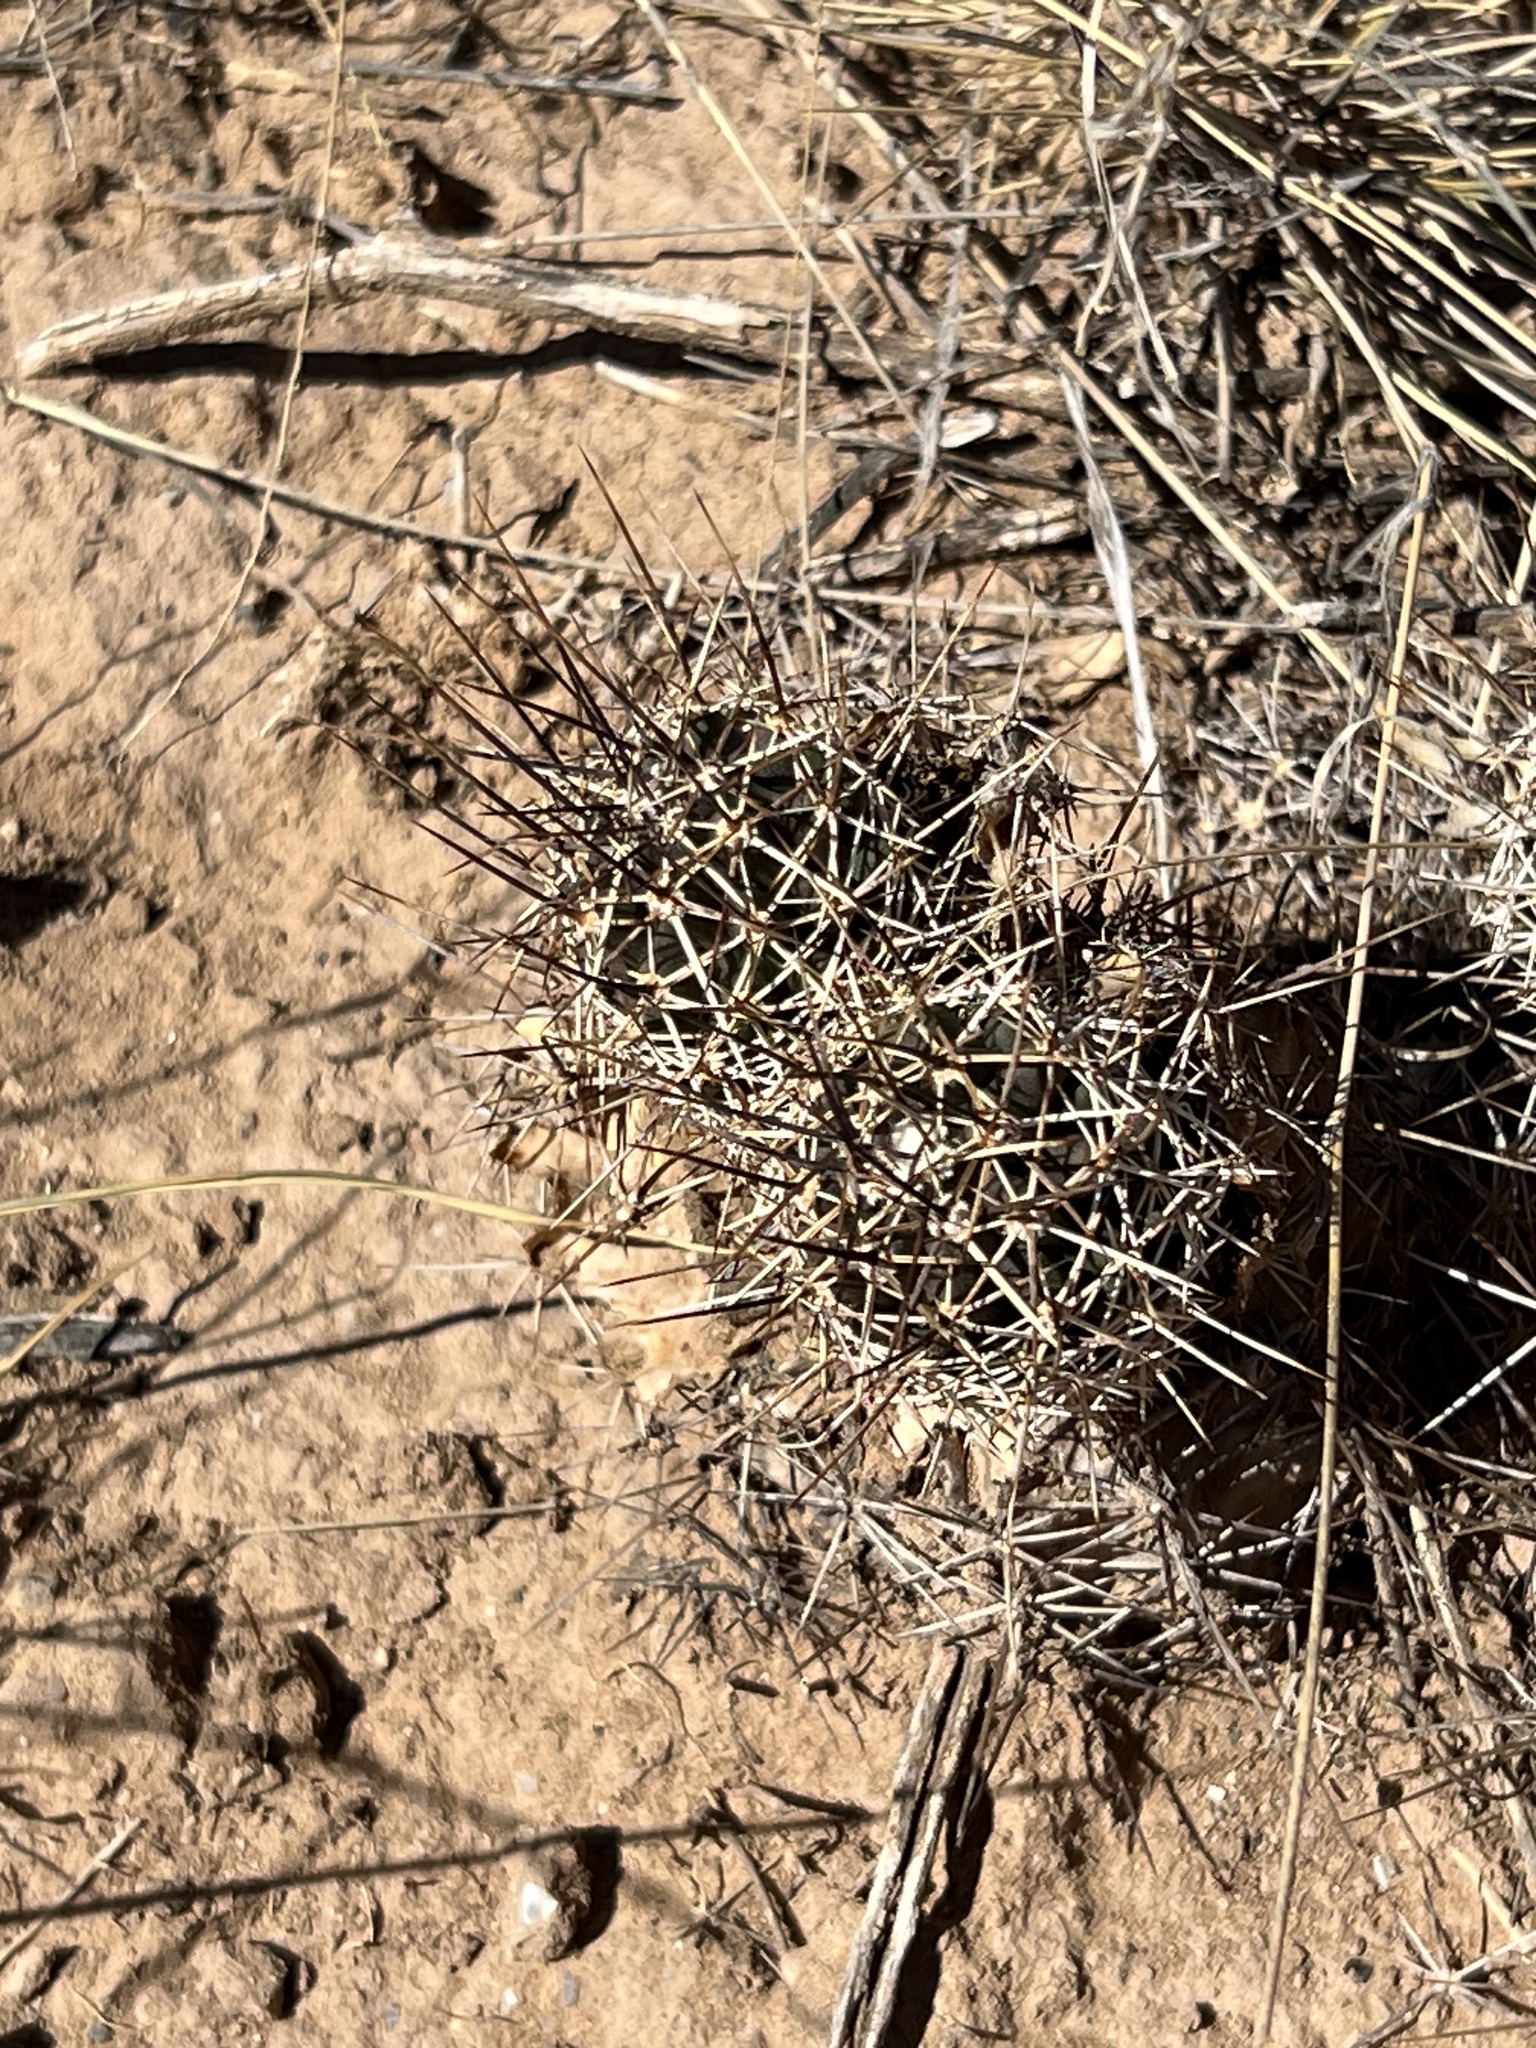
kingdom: Plantae
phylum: Tracheophyta
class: Magnoliopsida
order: Caryophyllales
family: Cactaceae
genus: Echinocereus
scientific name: Echinocereus fendleri
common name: Fendler's hedgehog cactus
